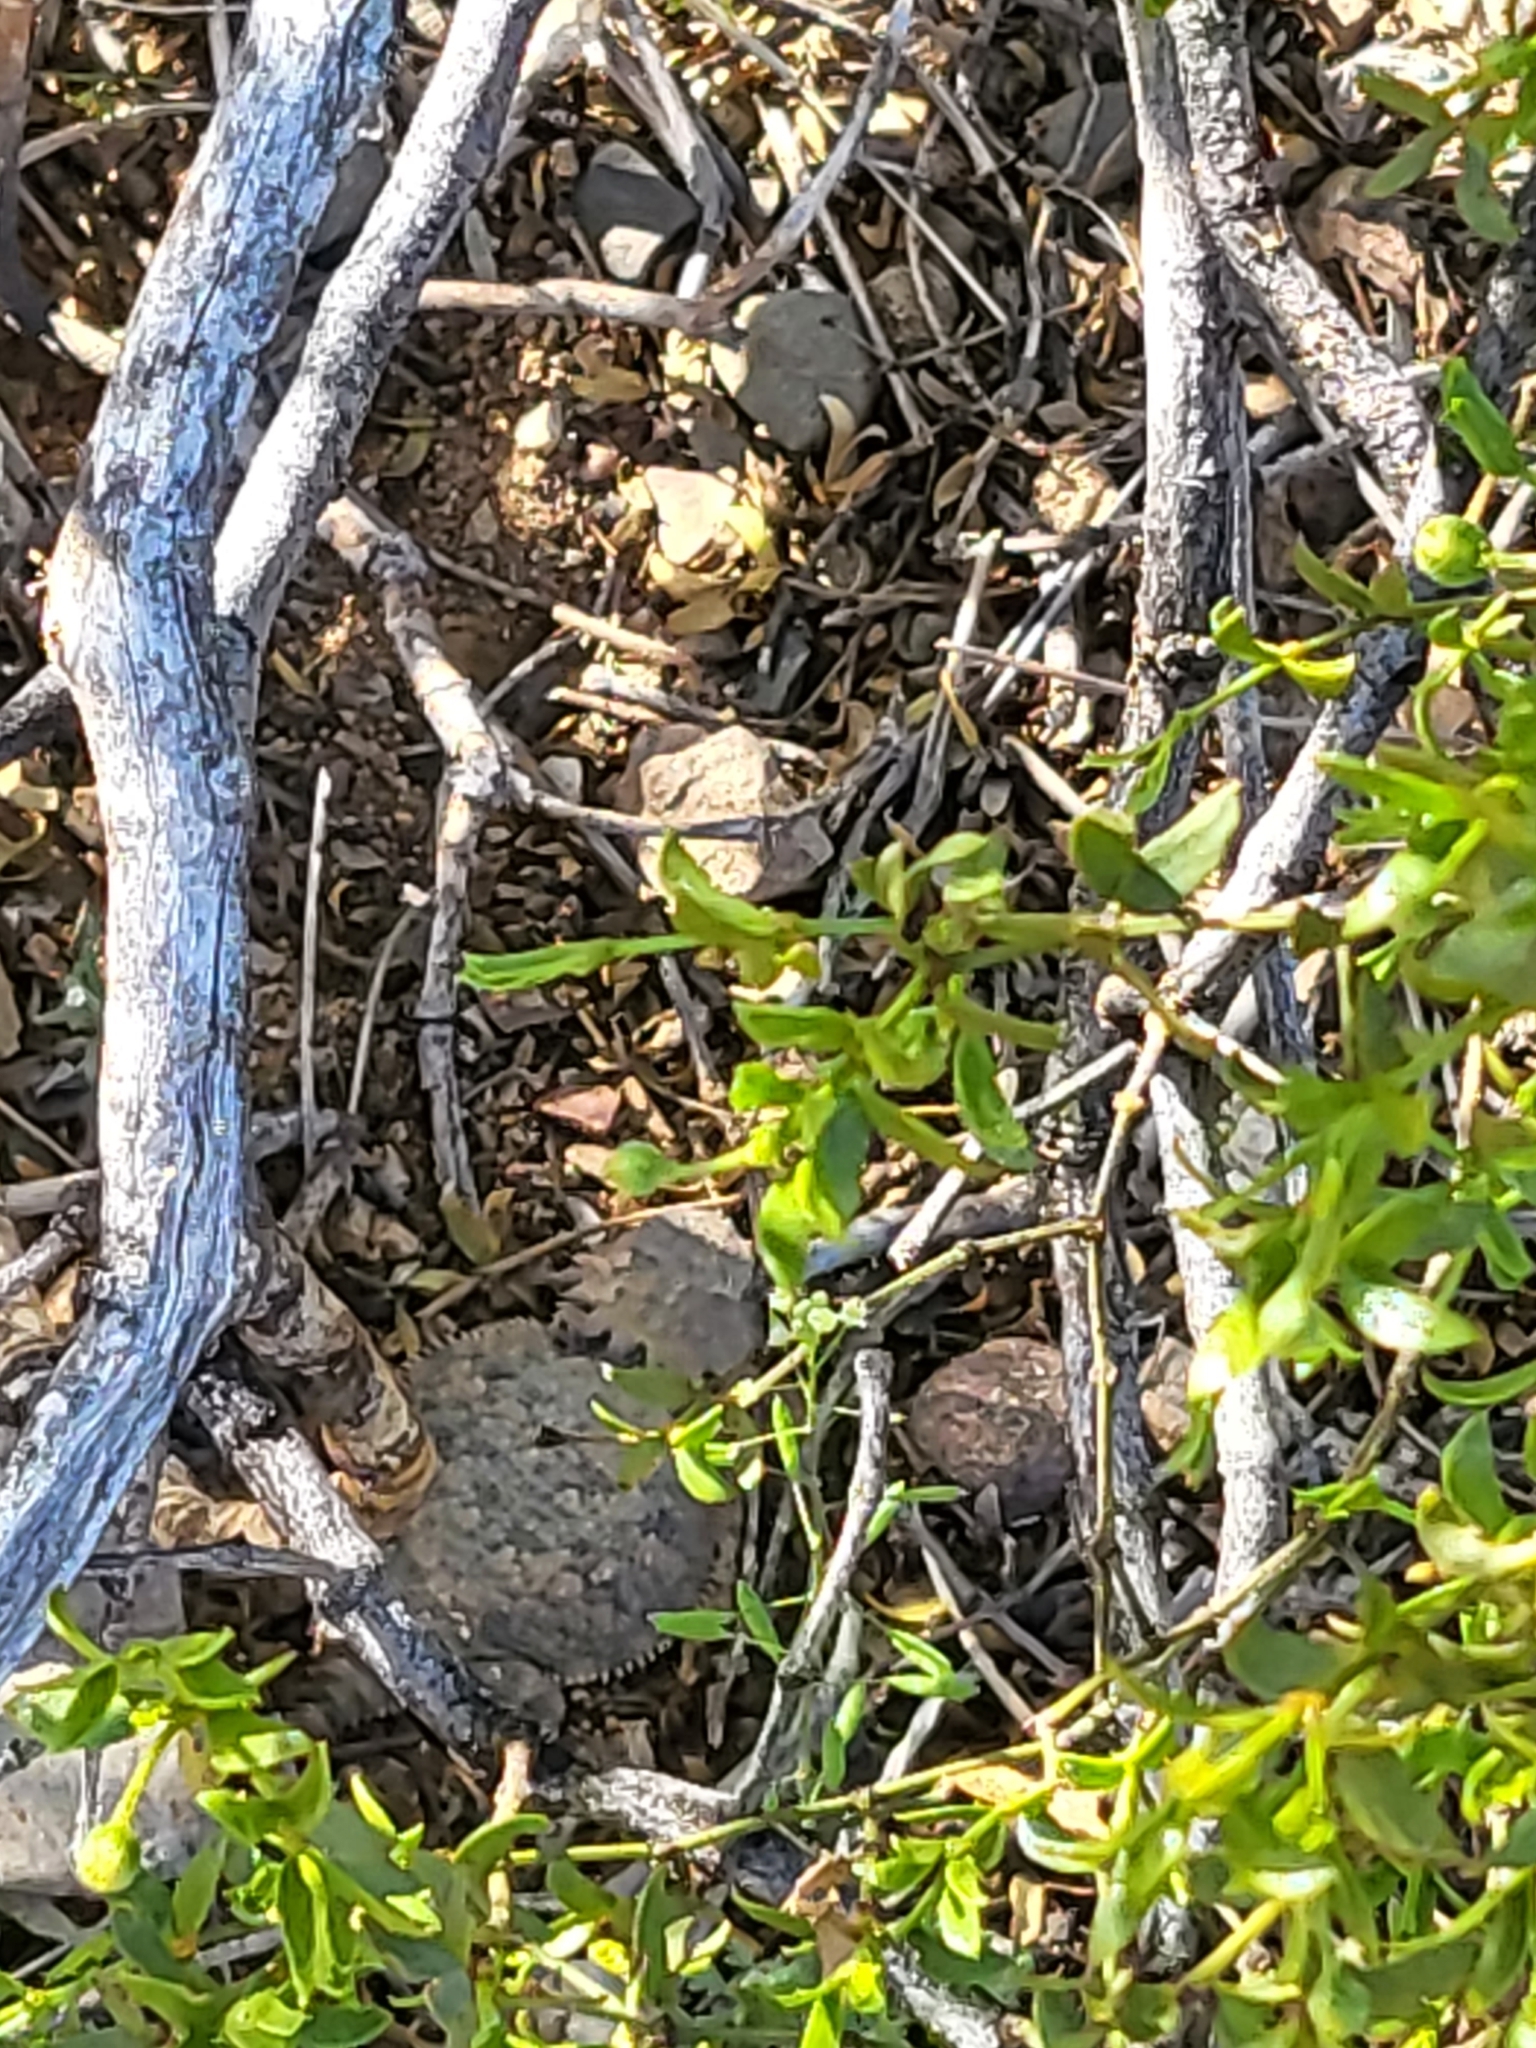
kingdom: Animalia
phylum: Chordata
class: Squamata
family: Phrynosomatidae
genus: Phrynosoma
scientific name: Phrynosoma solare
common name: Regal horned lizard
